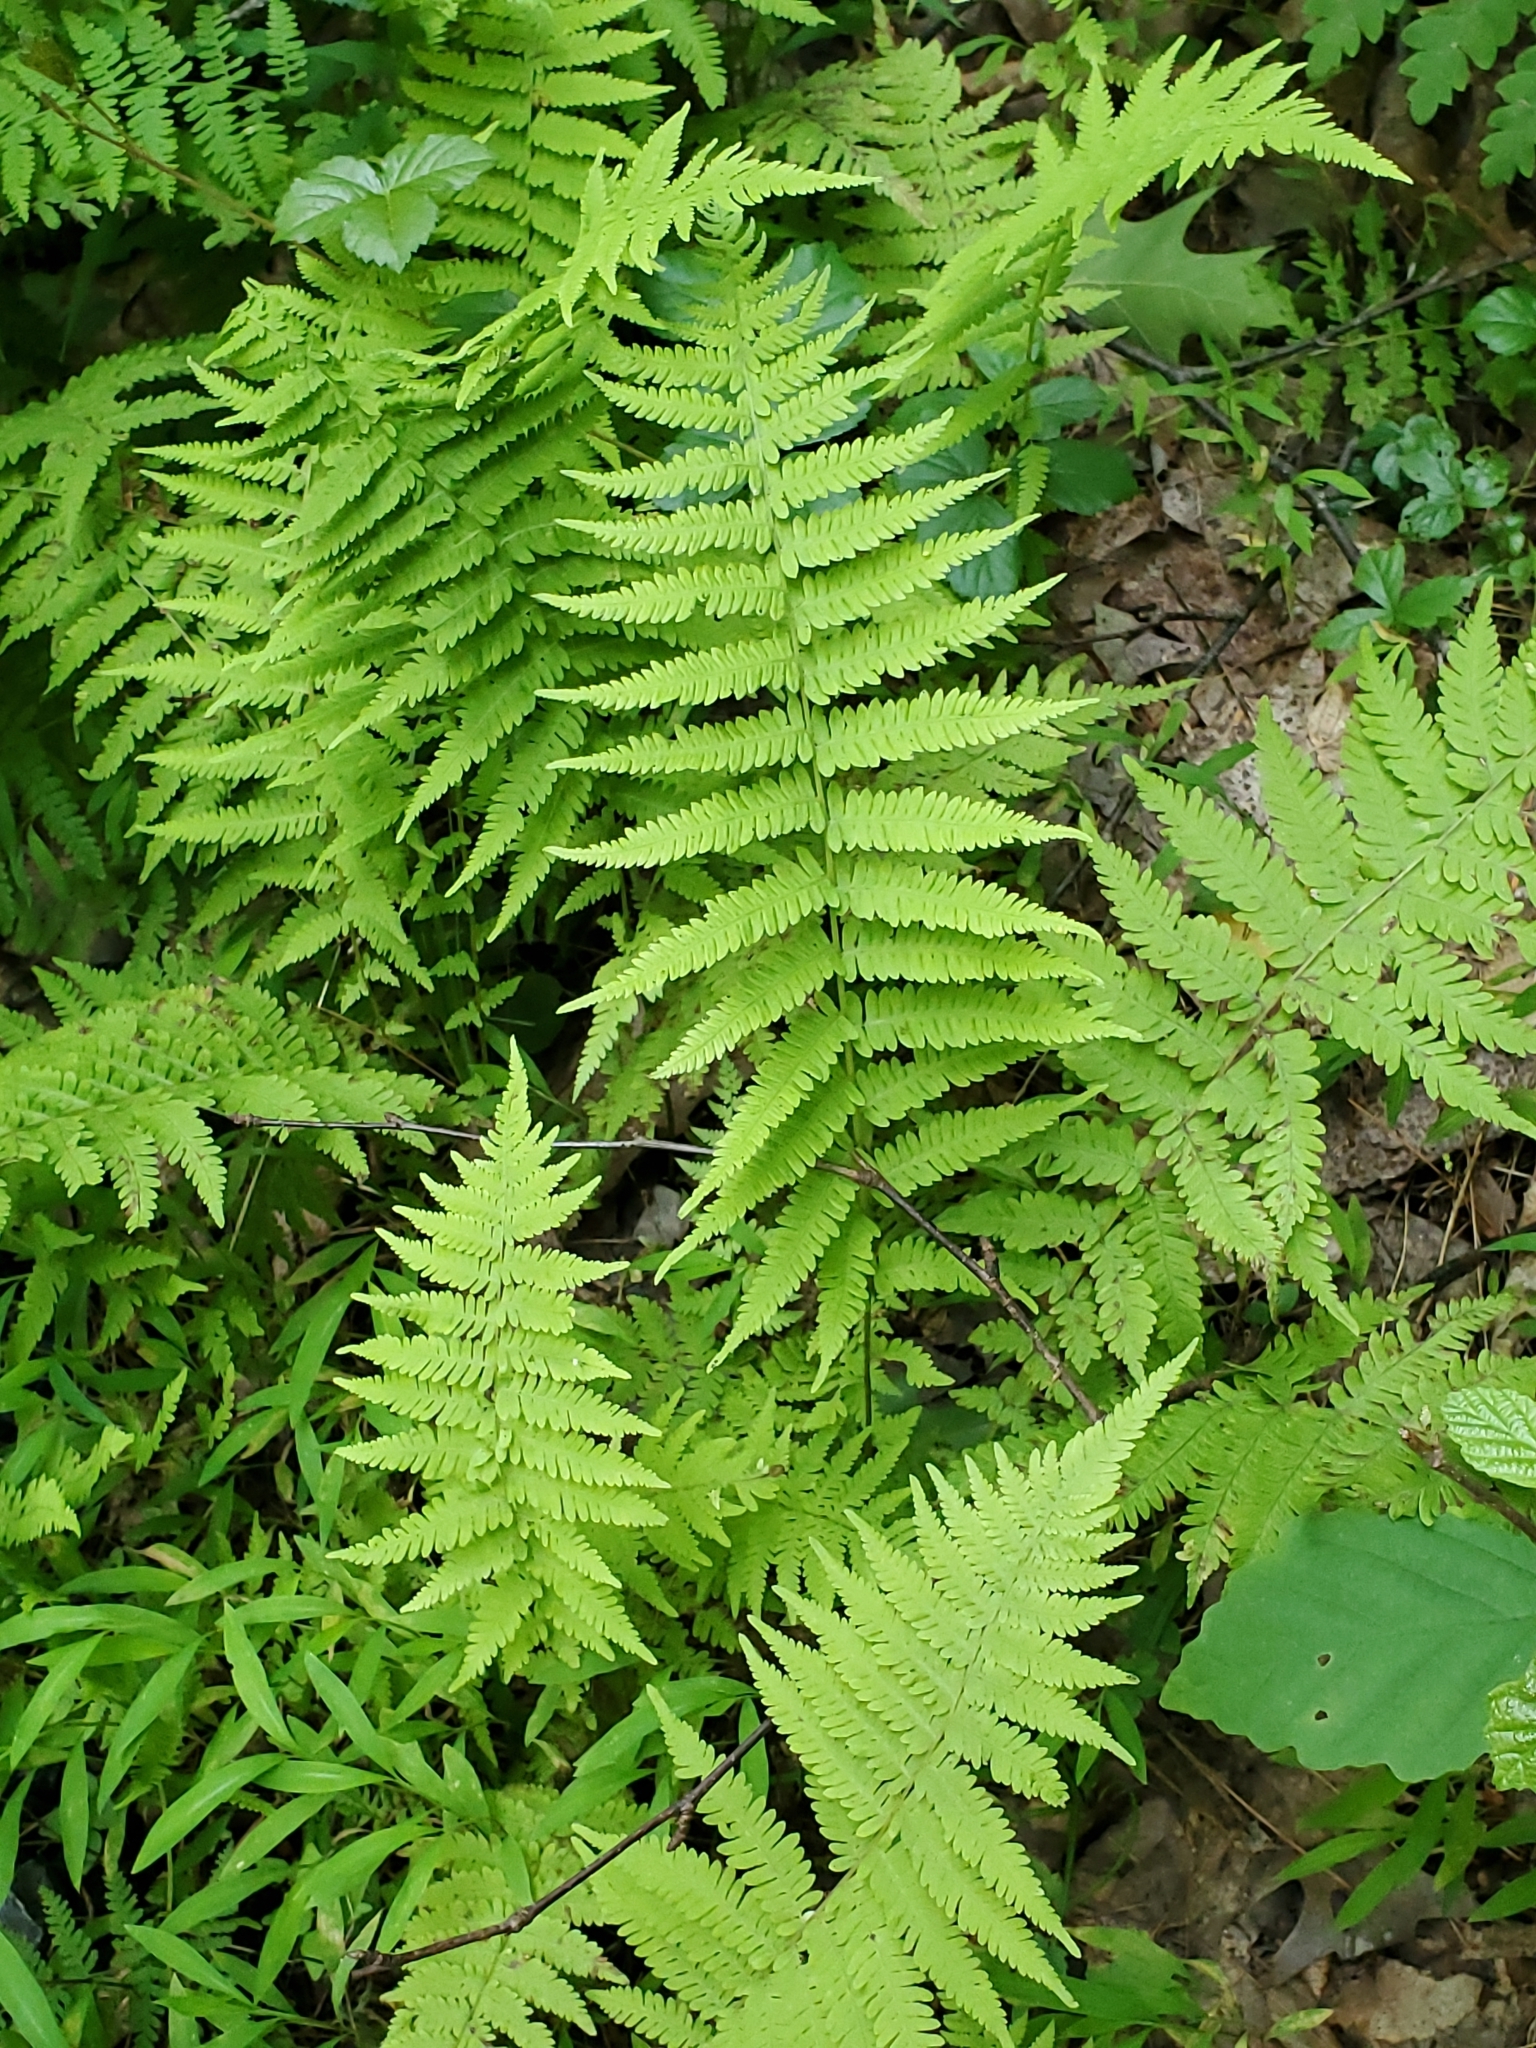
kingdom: Plantae
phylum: Tracheophyta
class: Polypodiopsida
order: Polypodiales
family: Thelypteridaceae
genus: Amauropelta
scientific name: Amauropelta noveboracensis
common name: New york fern
